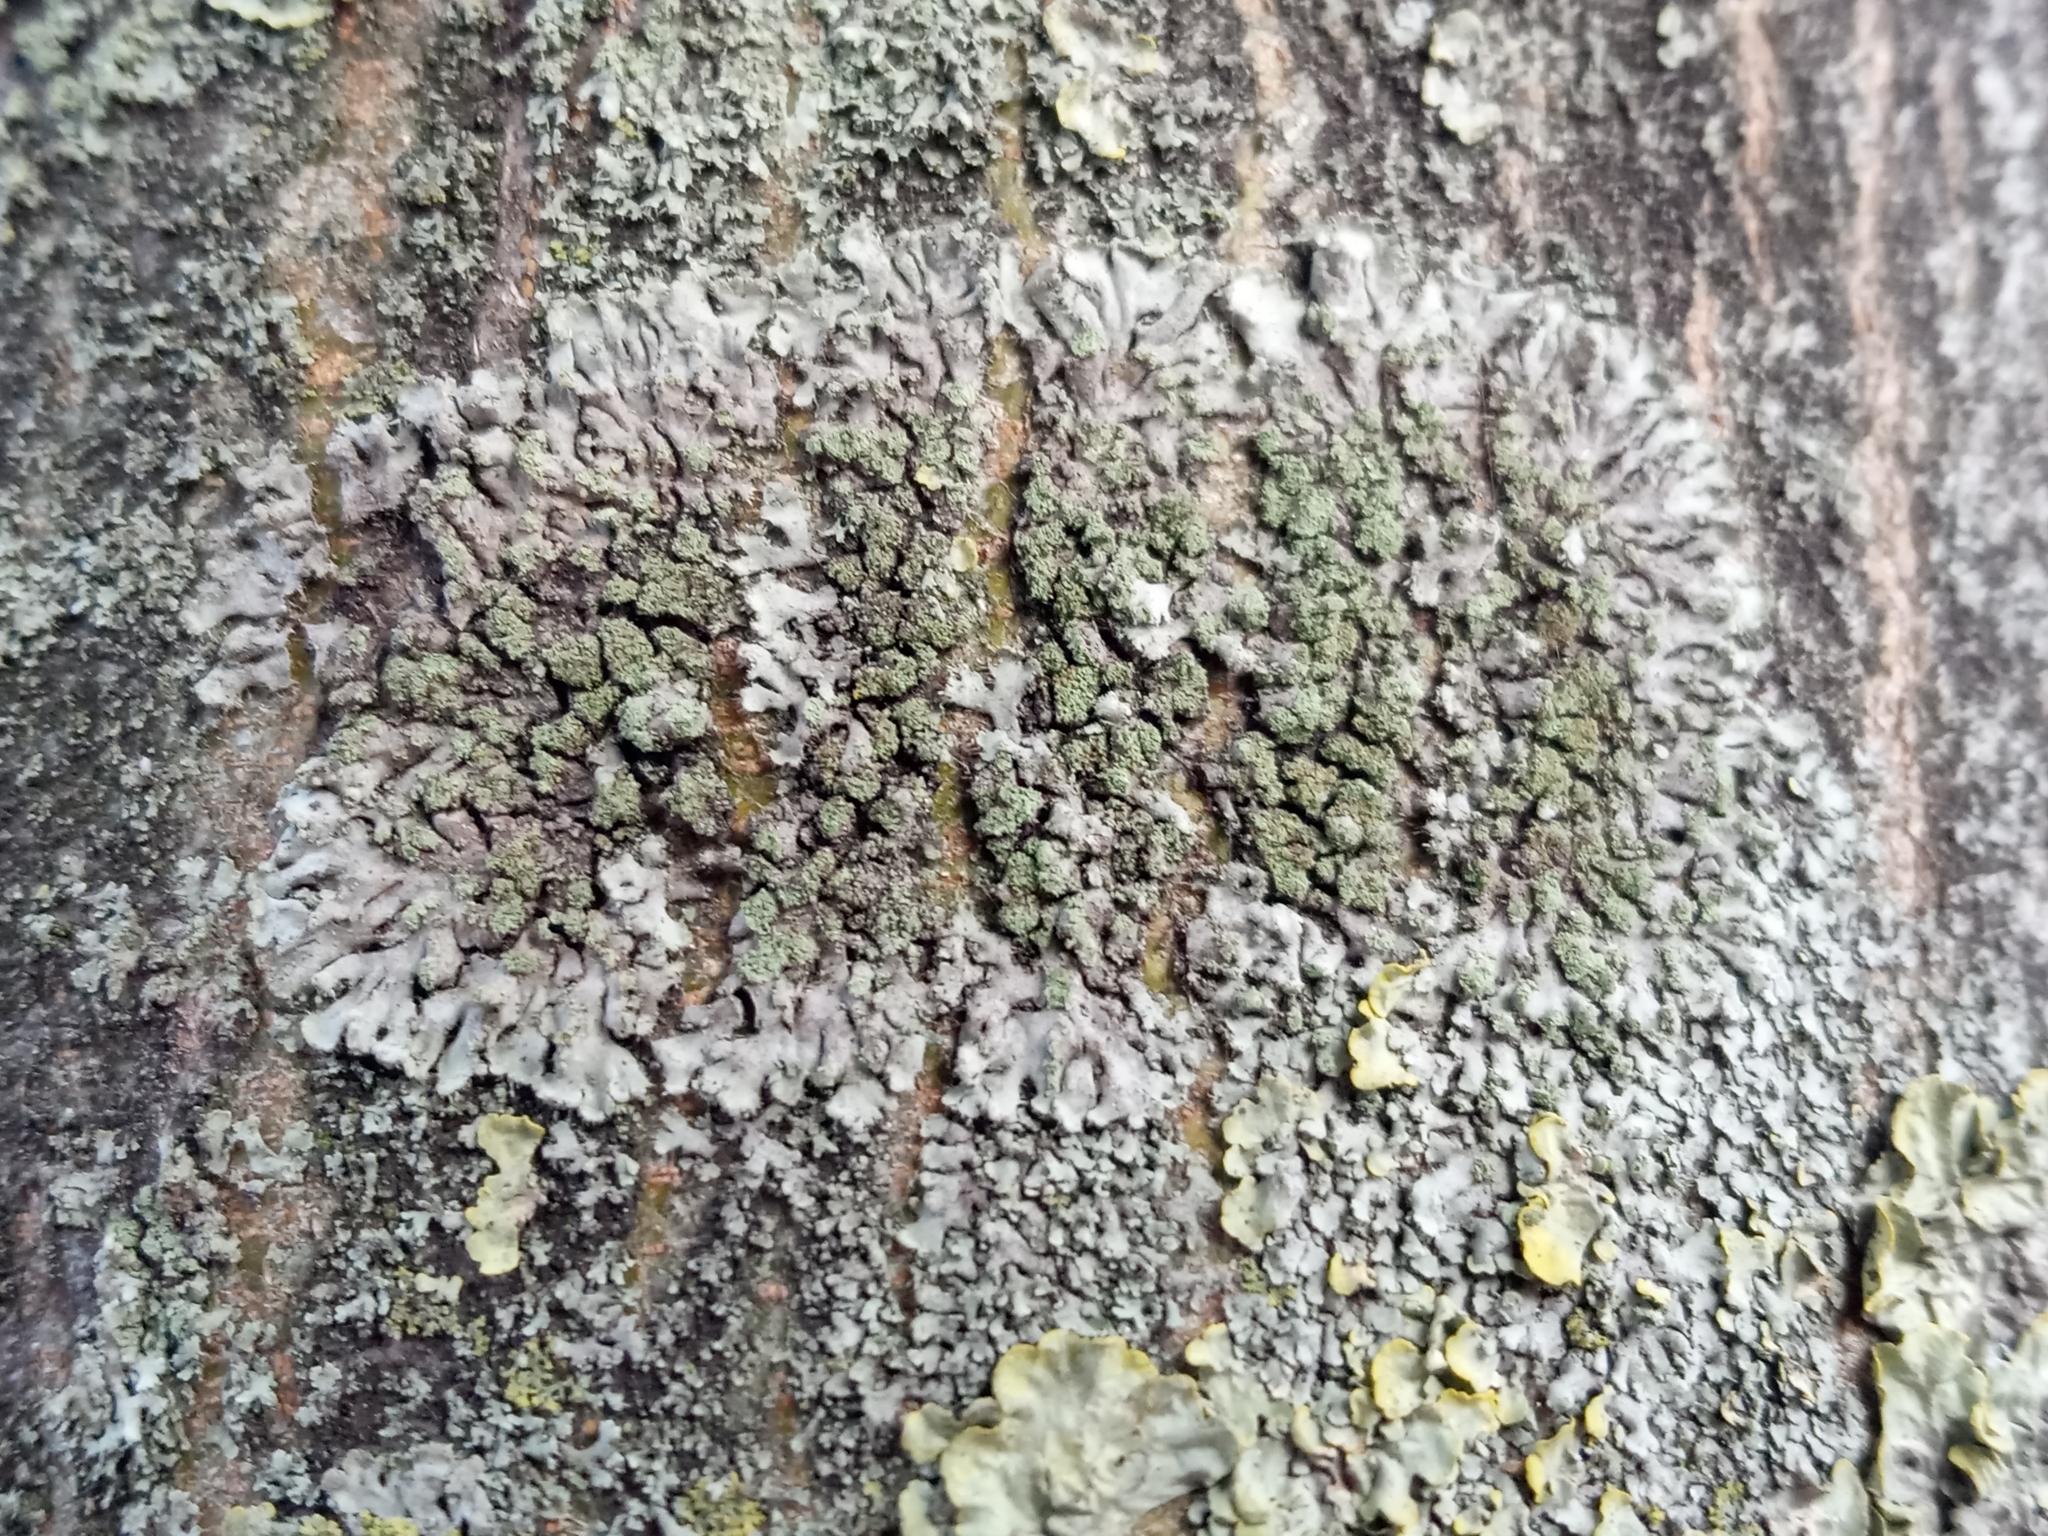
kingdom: Fungi
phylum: Ascomycota
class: Lecanoromycetes
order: Caliciales
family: Physciaceae
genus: Phaeophyscia
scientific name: Phaeophyscia orbicularis
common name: Mealy shadow lichen
